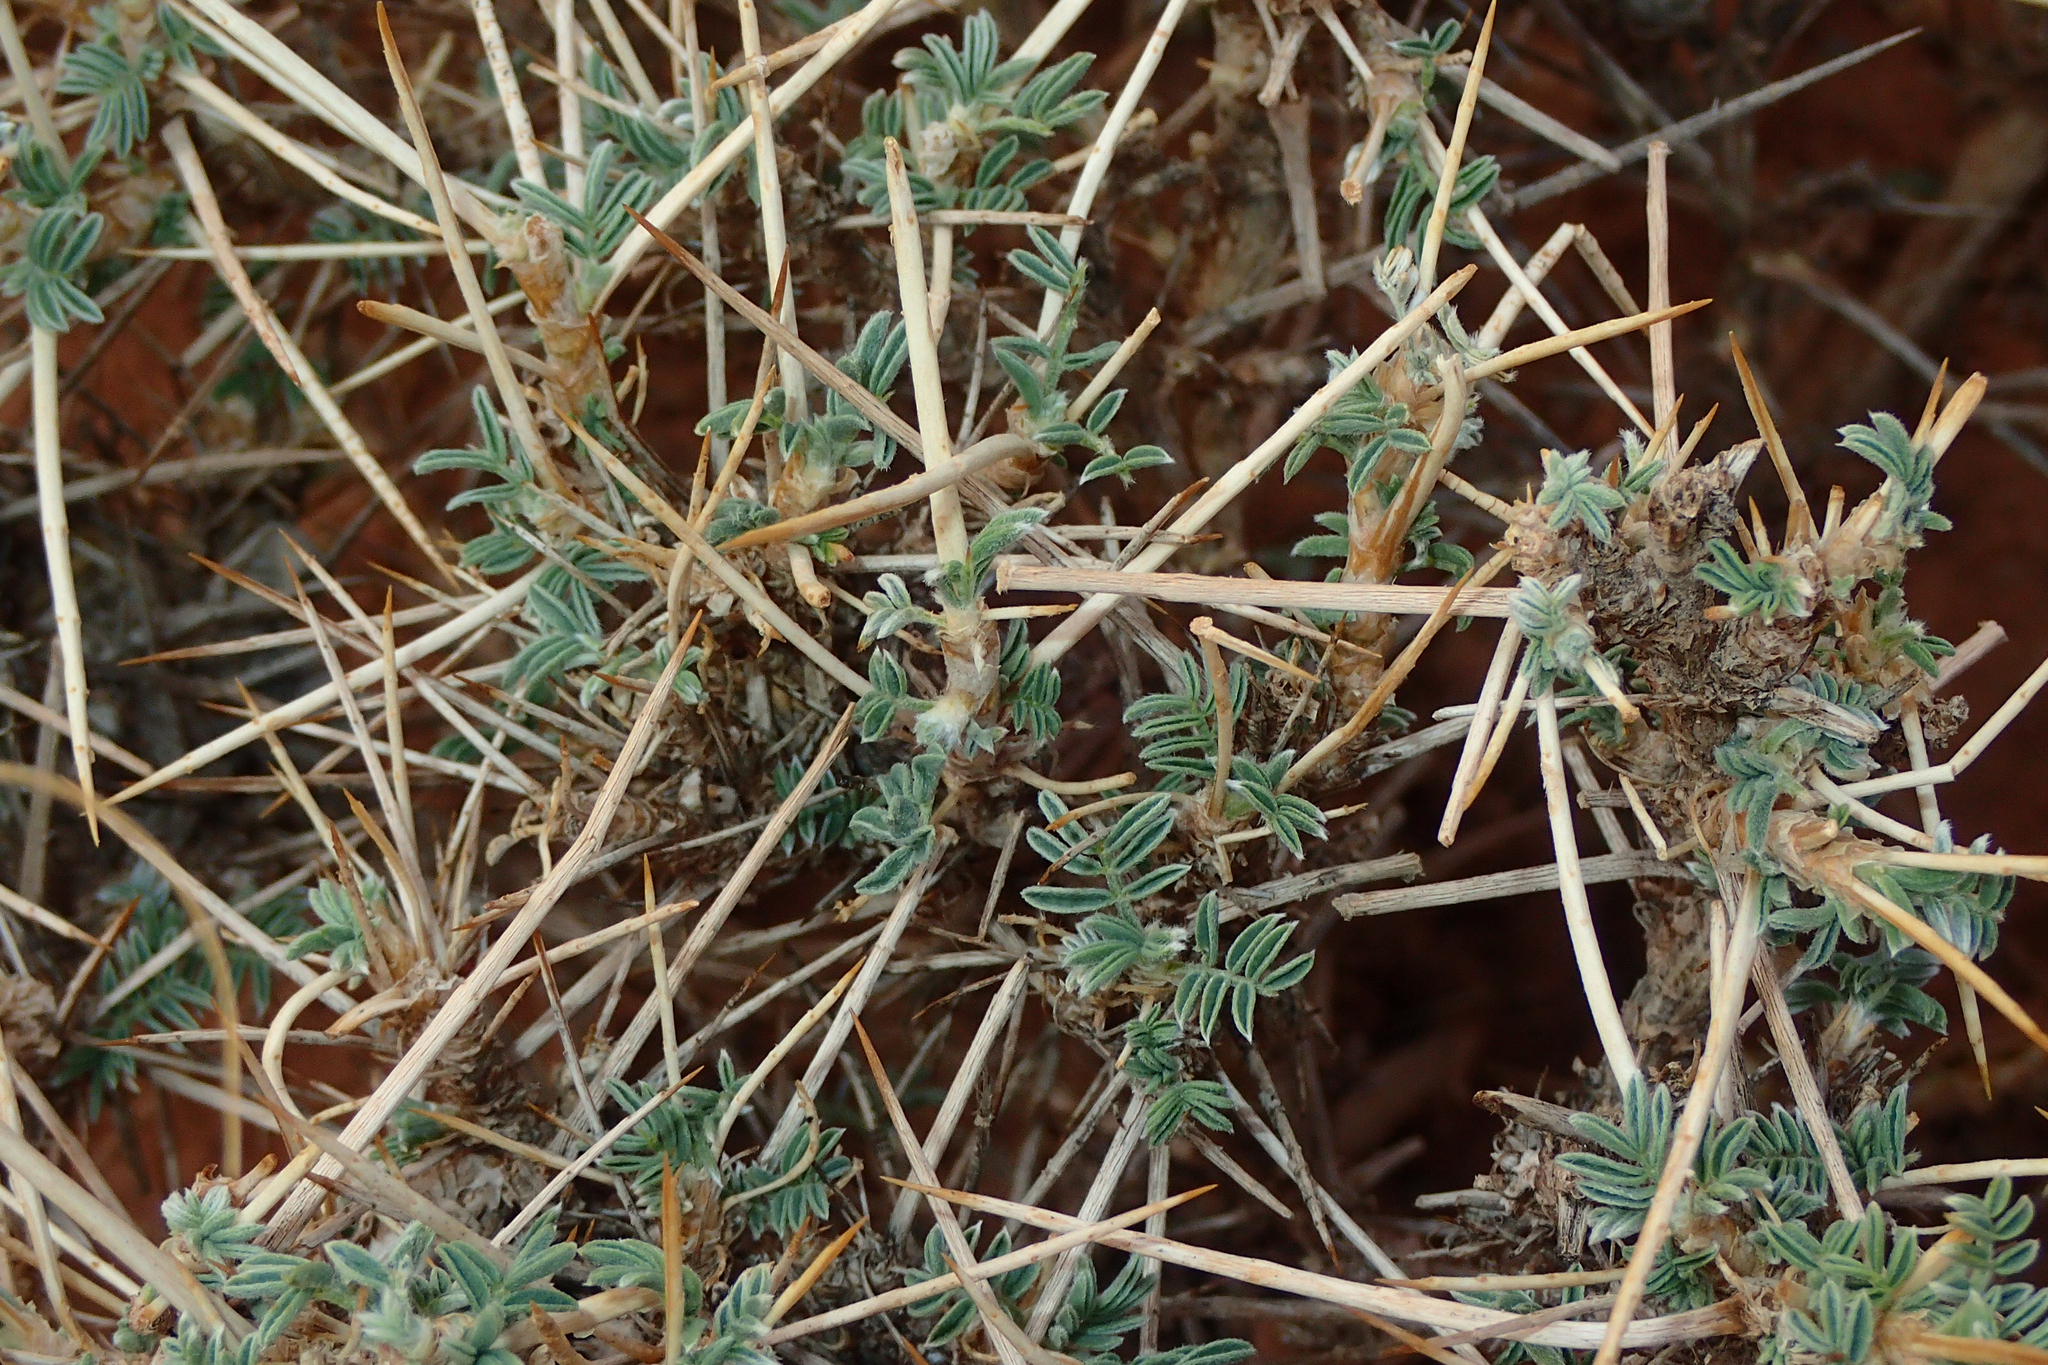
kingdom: Plantae
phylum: Tracheophyta
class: Magnoliopsida
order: Fabales
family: Fabaceae
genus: Astragalus
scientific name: Astragalus armatus
